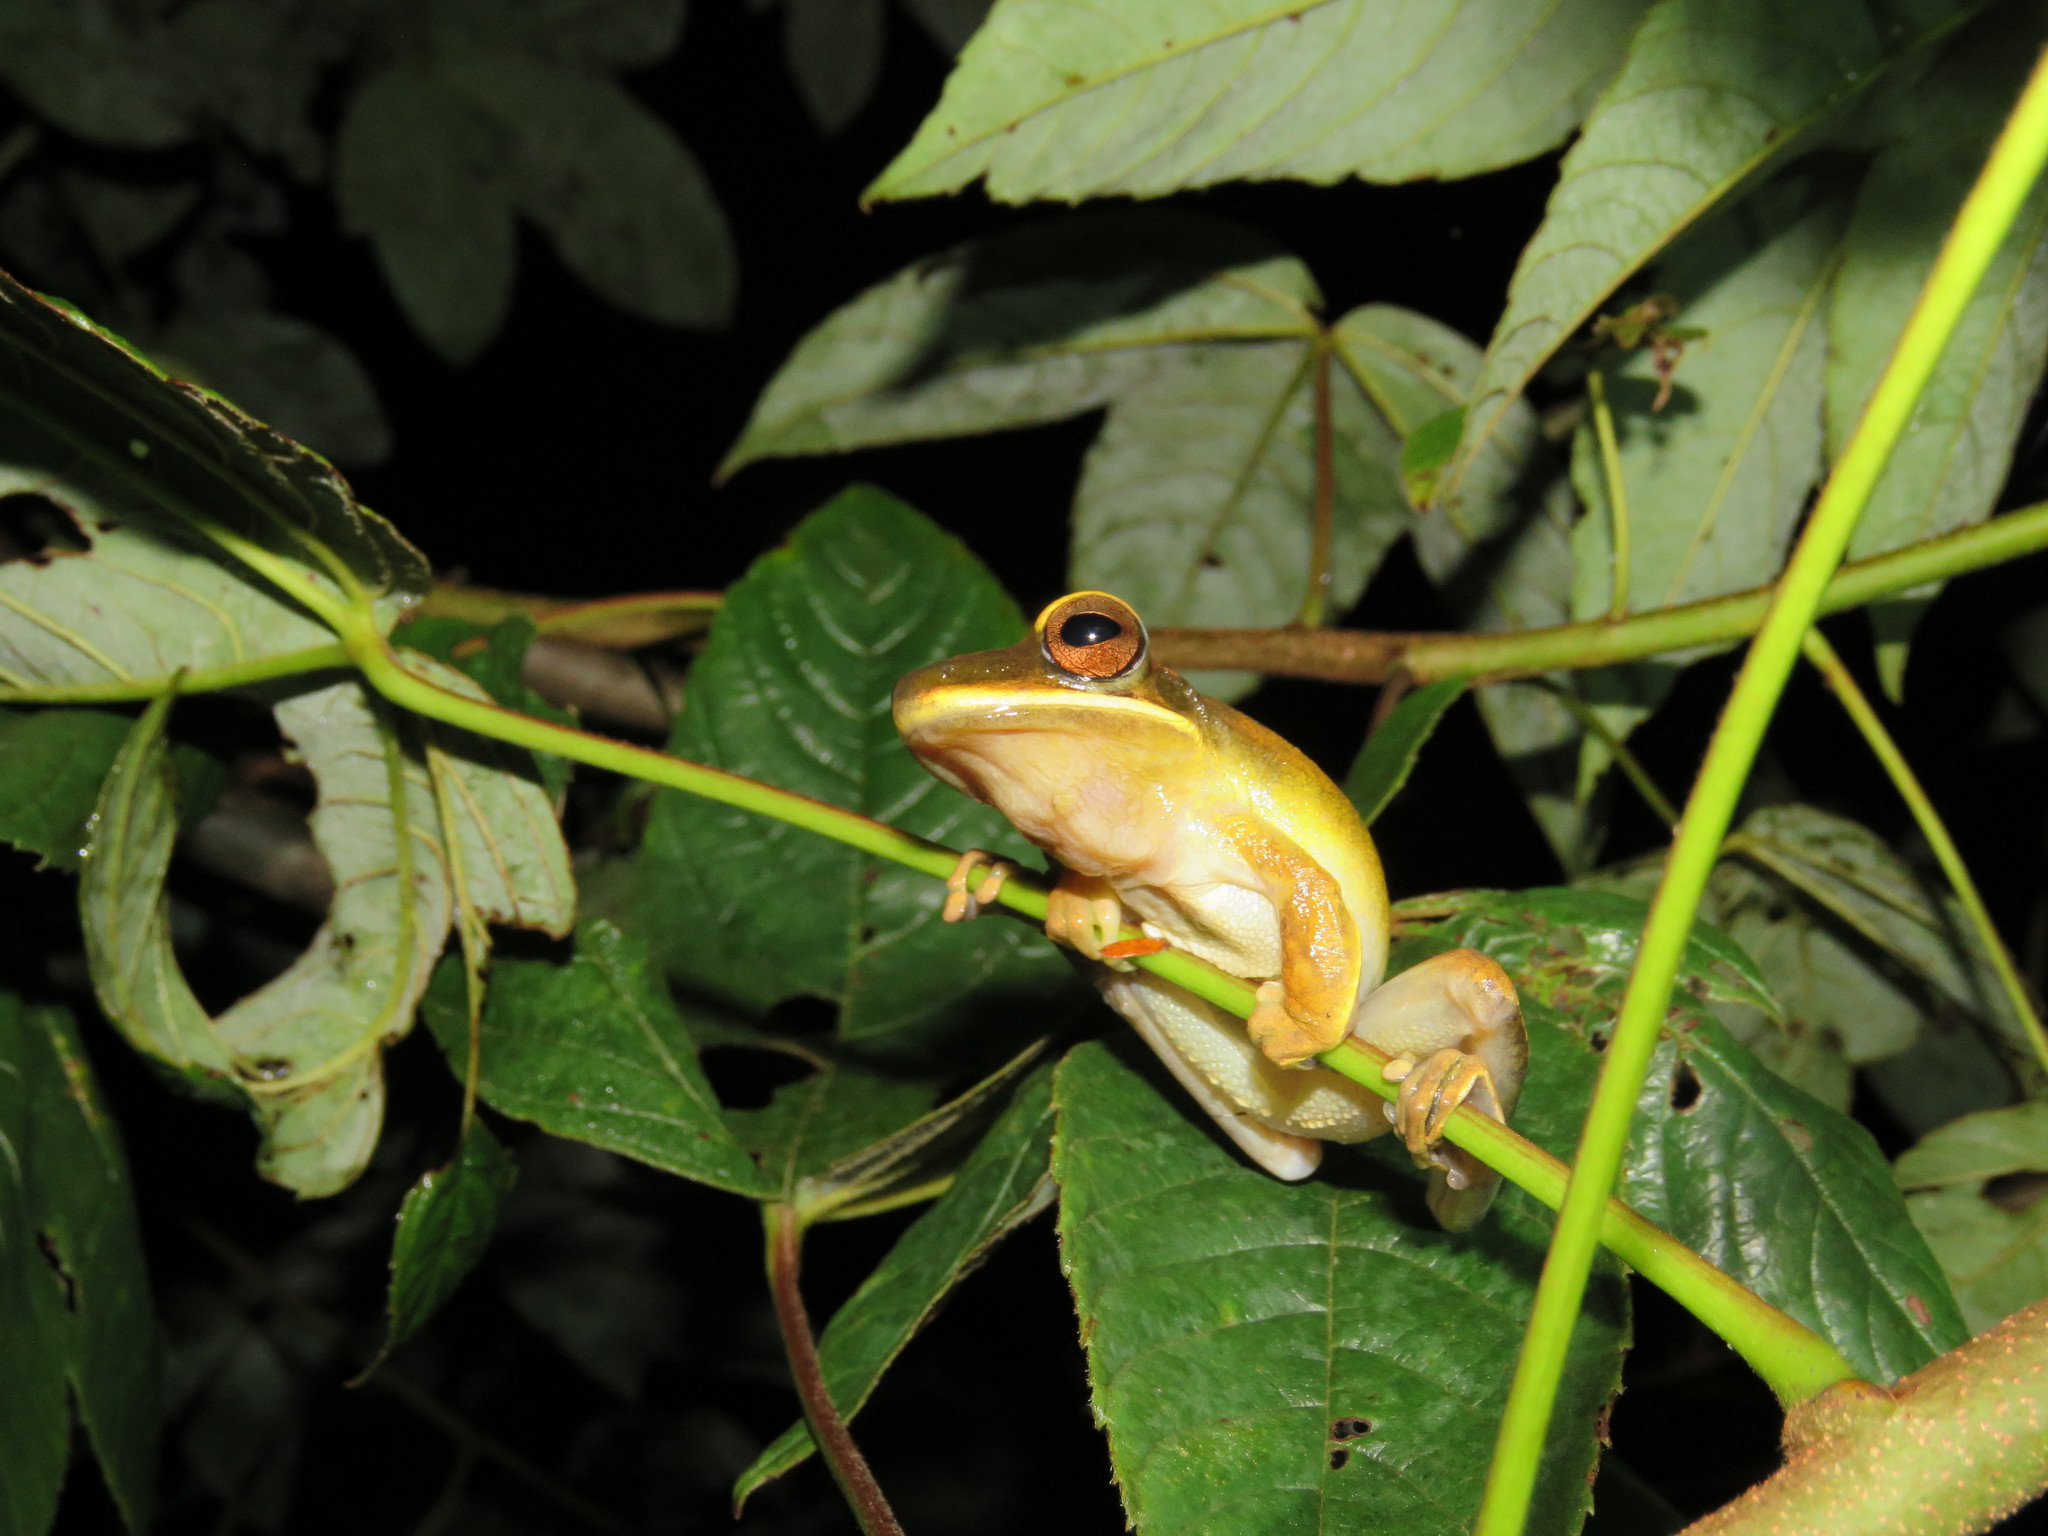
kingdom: Animalia
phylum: Chordata
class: Amphibia
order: Anura
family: Hylidae
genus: Boana
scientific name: Boana lanciformis
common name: Rana lanceolada commún
